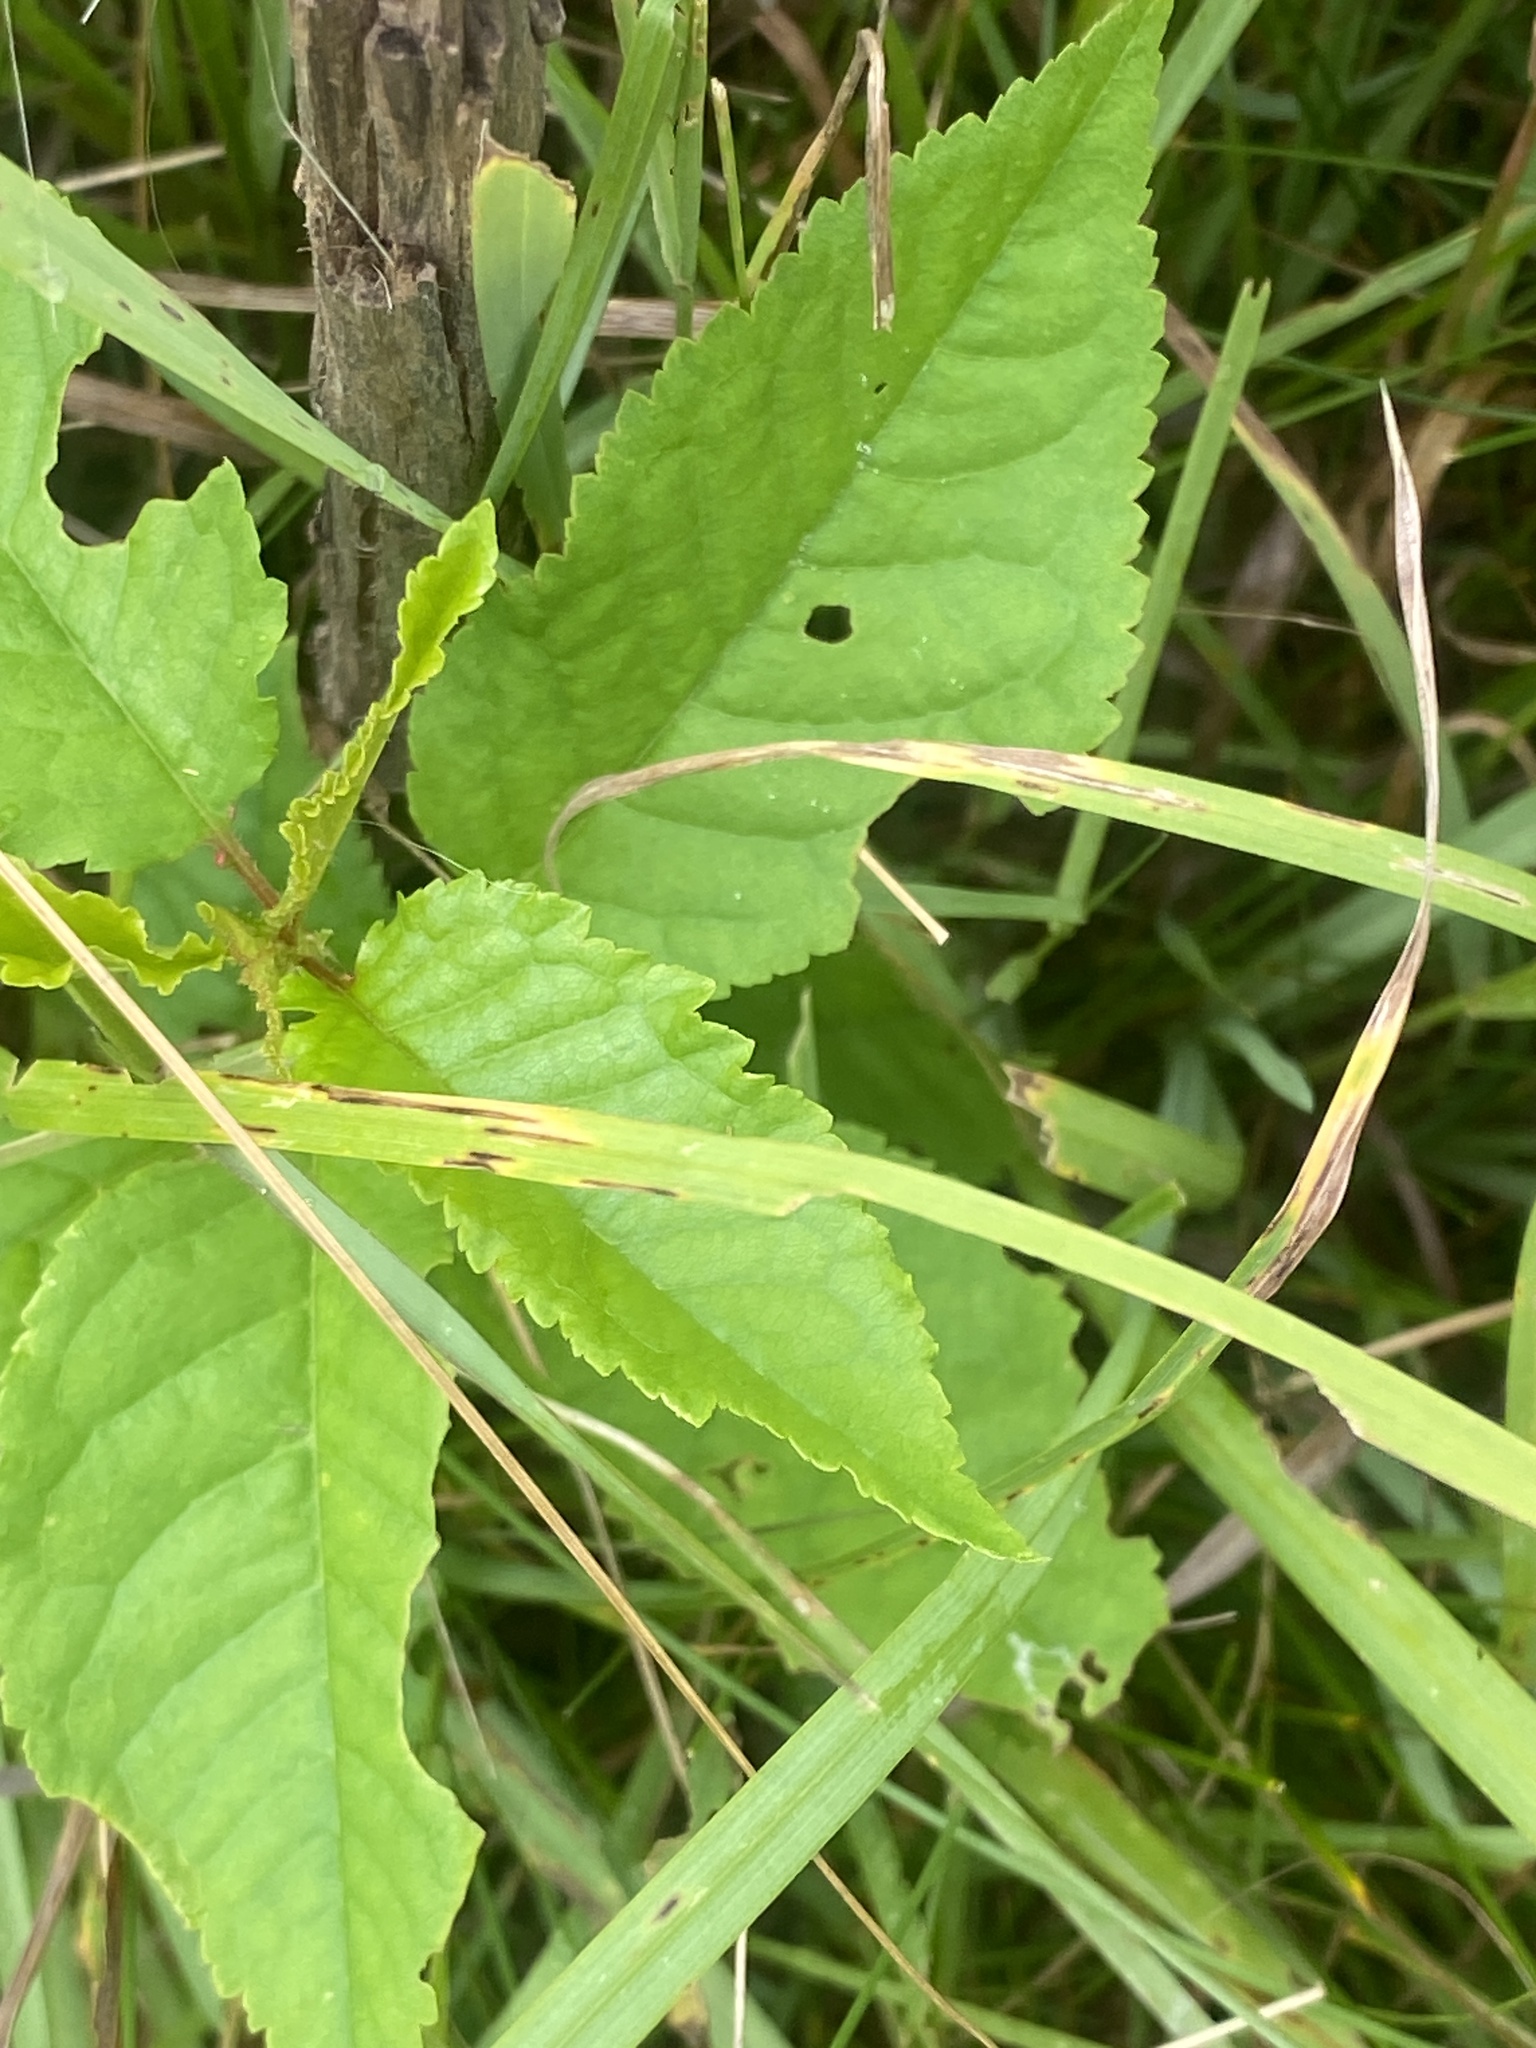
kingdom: Plantae
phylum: Tracheophyta
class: Magnoliopsida
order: Rosales
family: Rosaceae
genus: Prunus
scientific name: Prunus avium
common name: Sweet cherry
